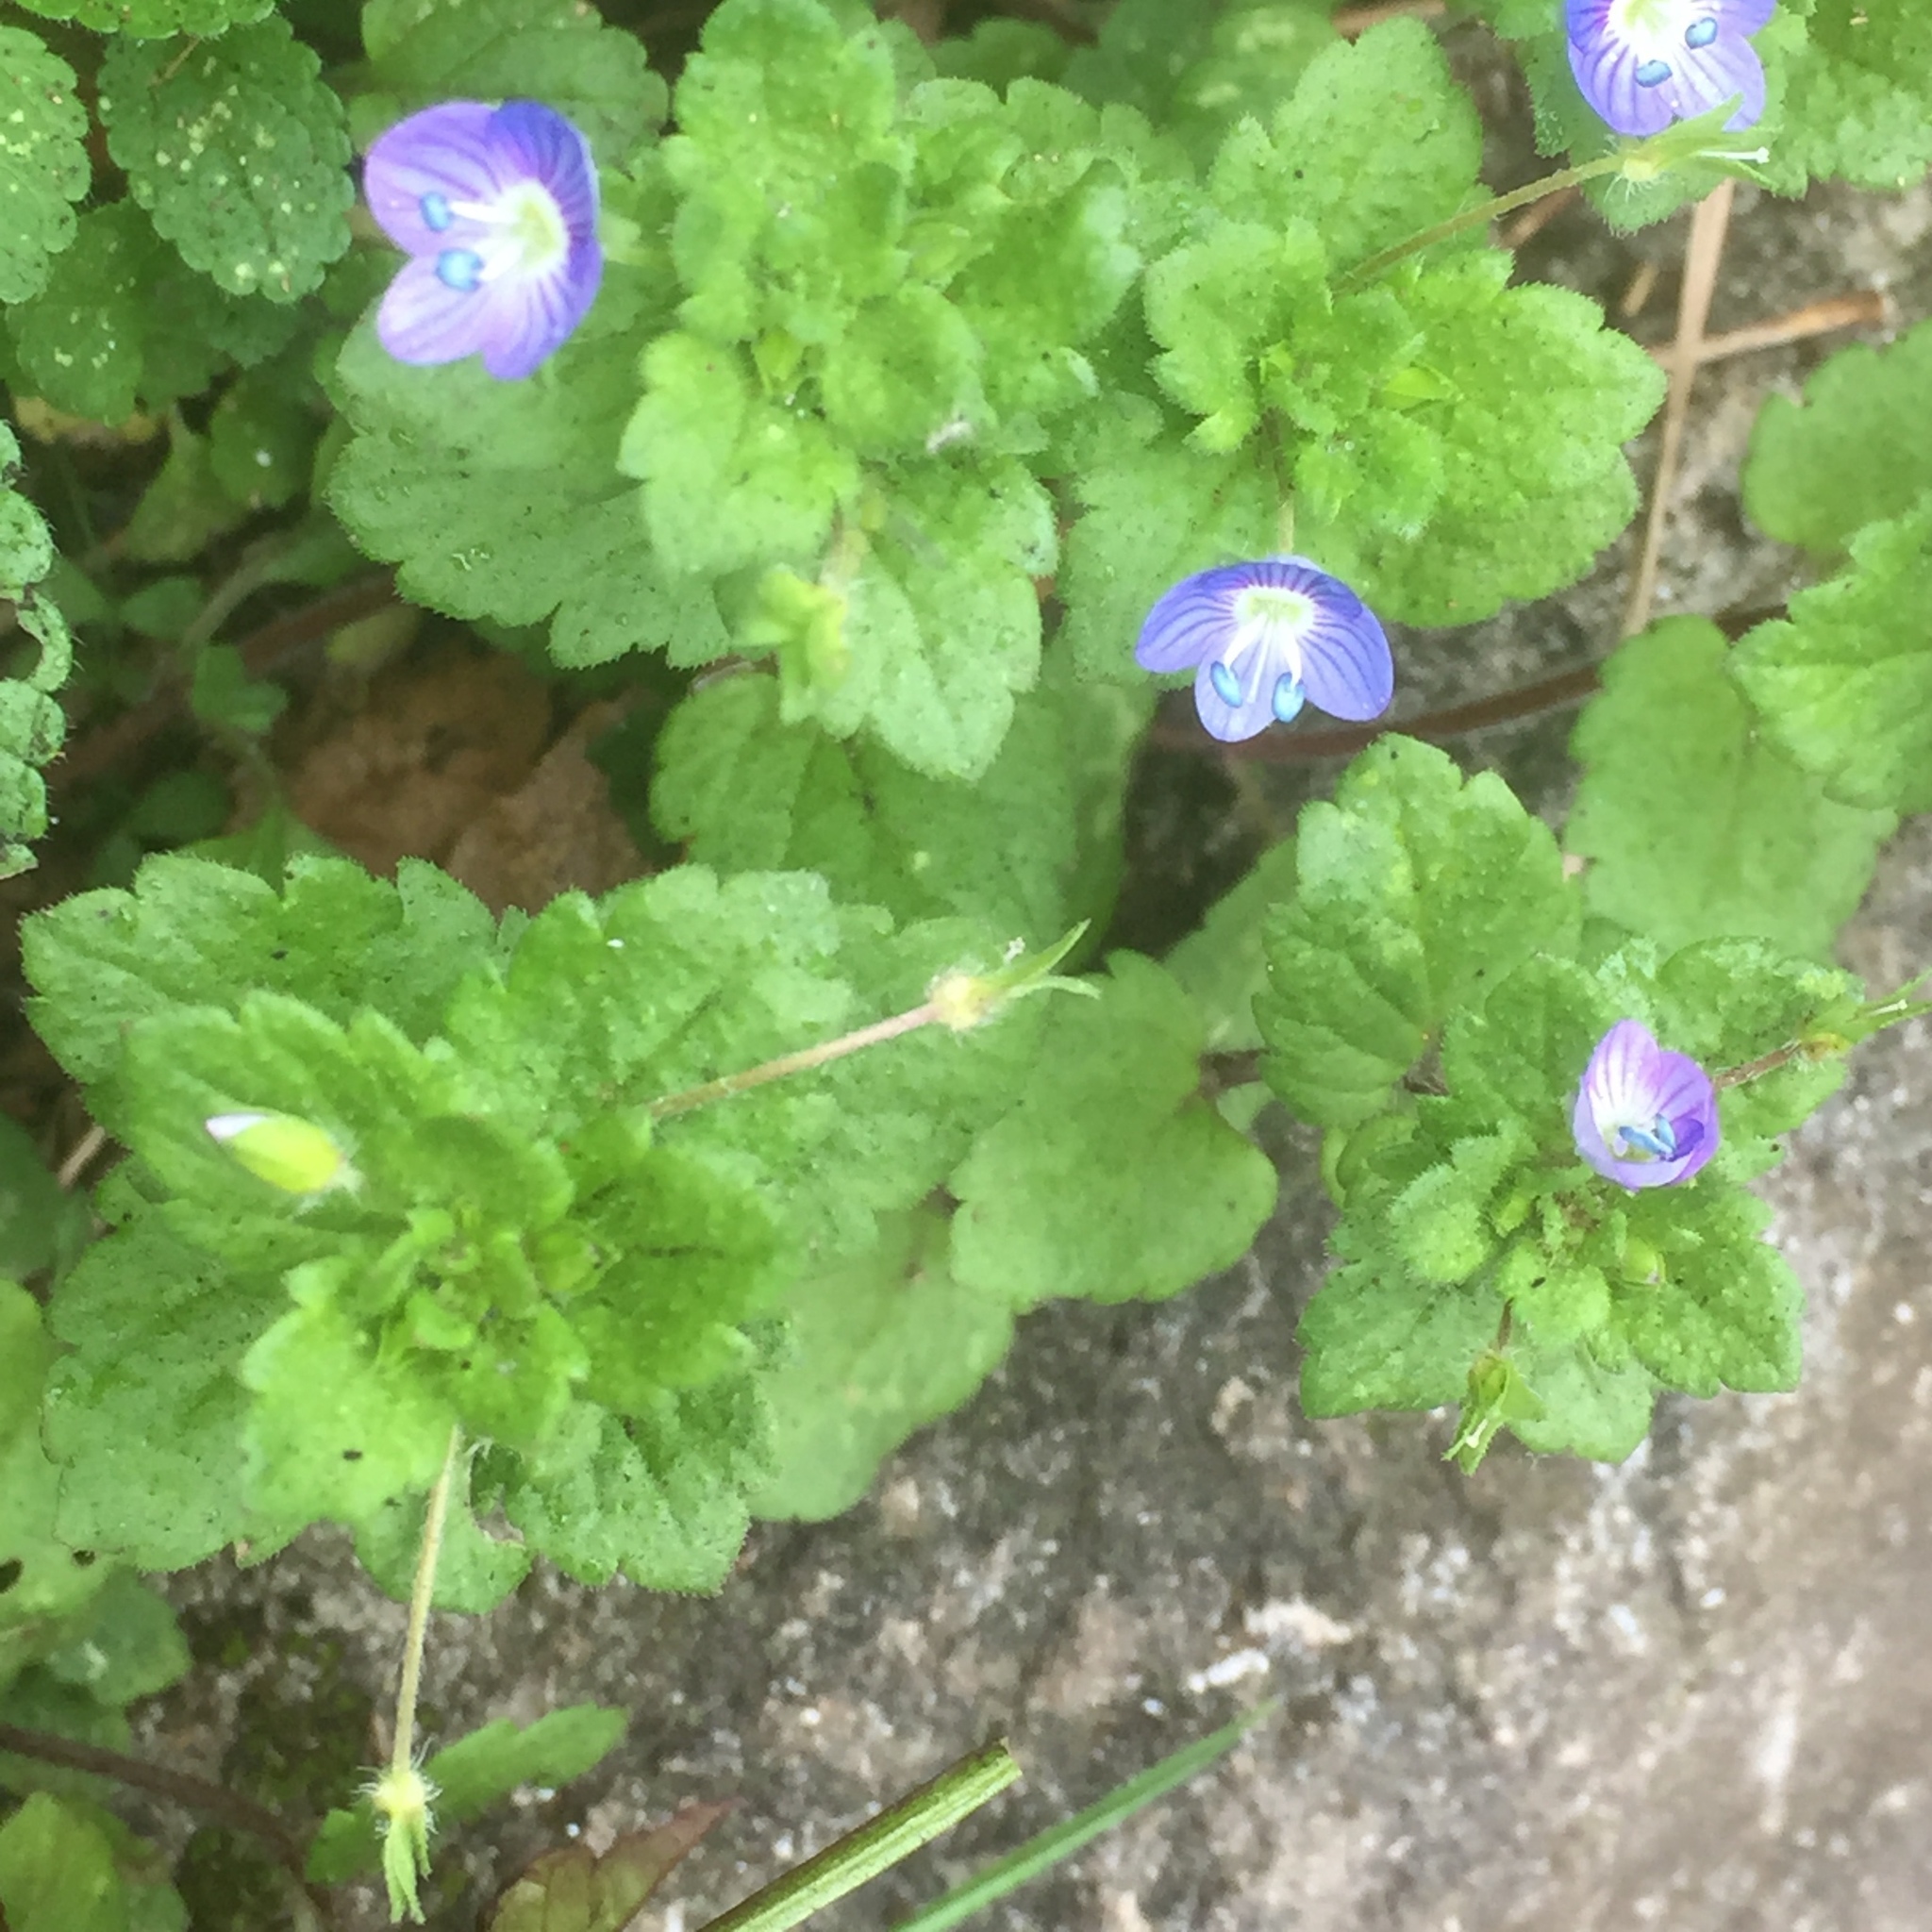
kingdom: Plantae
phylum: Tracheophyta
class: Magnoliopsida
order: Lamiales
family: Plantaginaceae
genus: Veronica
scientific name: Veronica persica
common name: Common field-speedwell
